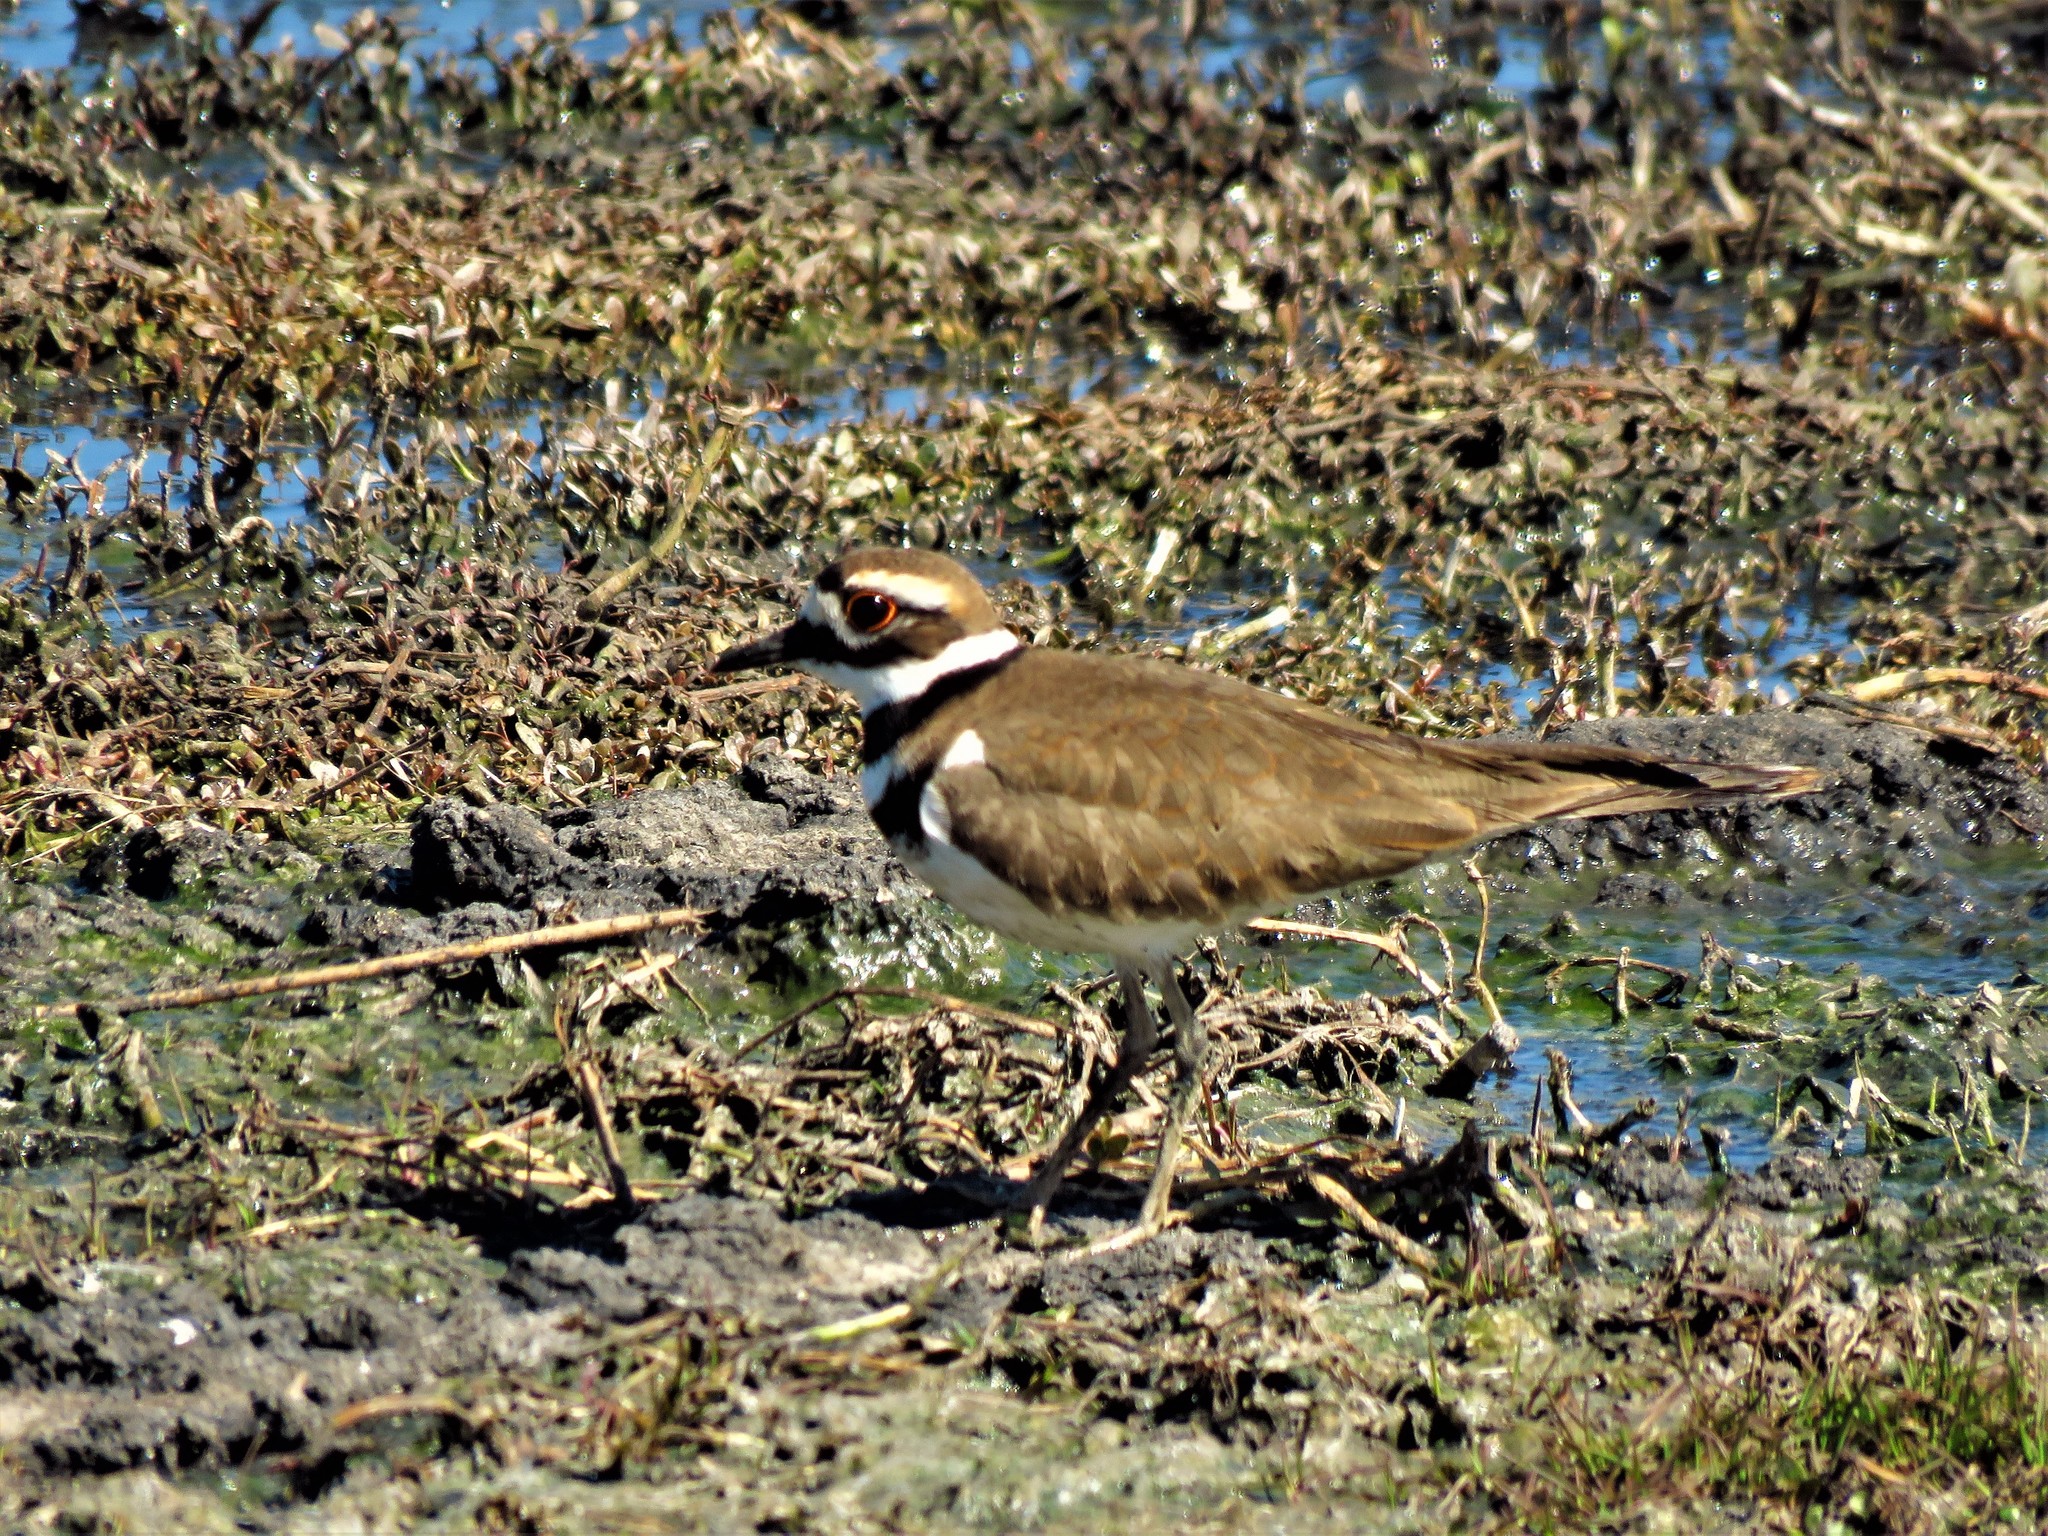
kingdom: Animalia
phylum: Chordata
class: Aves
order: Charadriiformes
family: Charadriidae
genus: Charadrius
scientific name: Charadrius vociferus
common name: Killdeer
